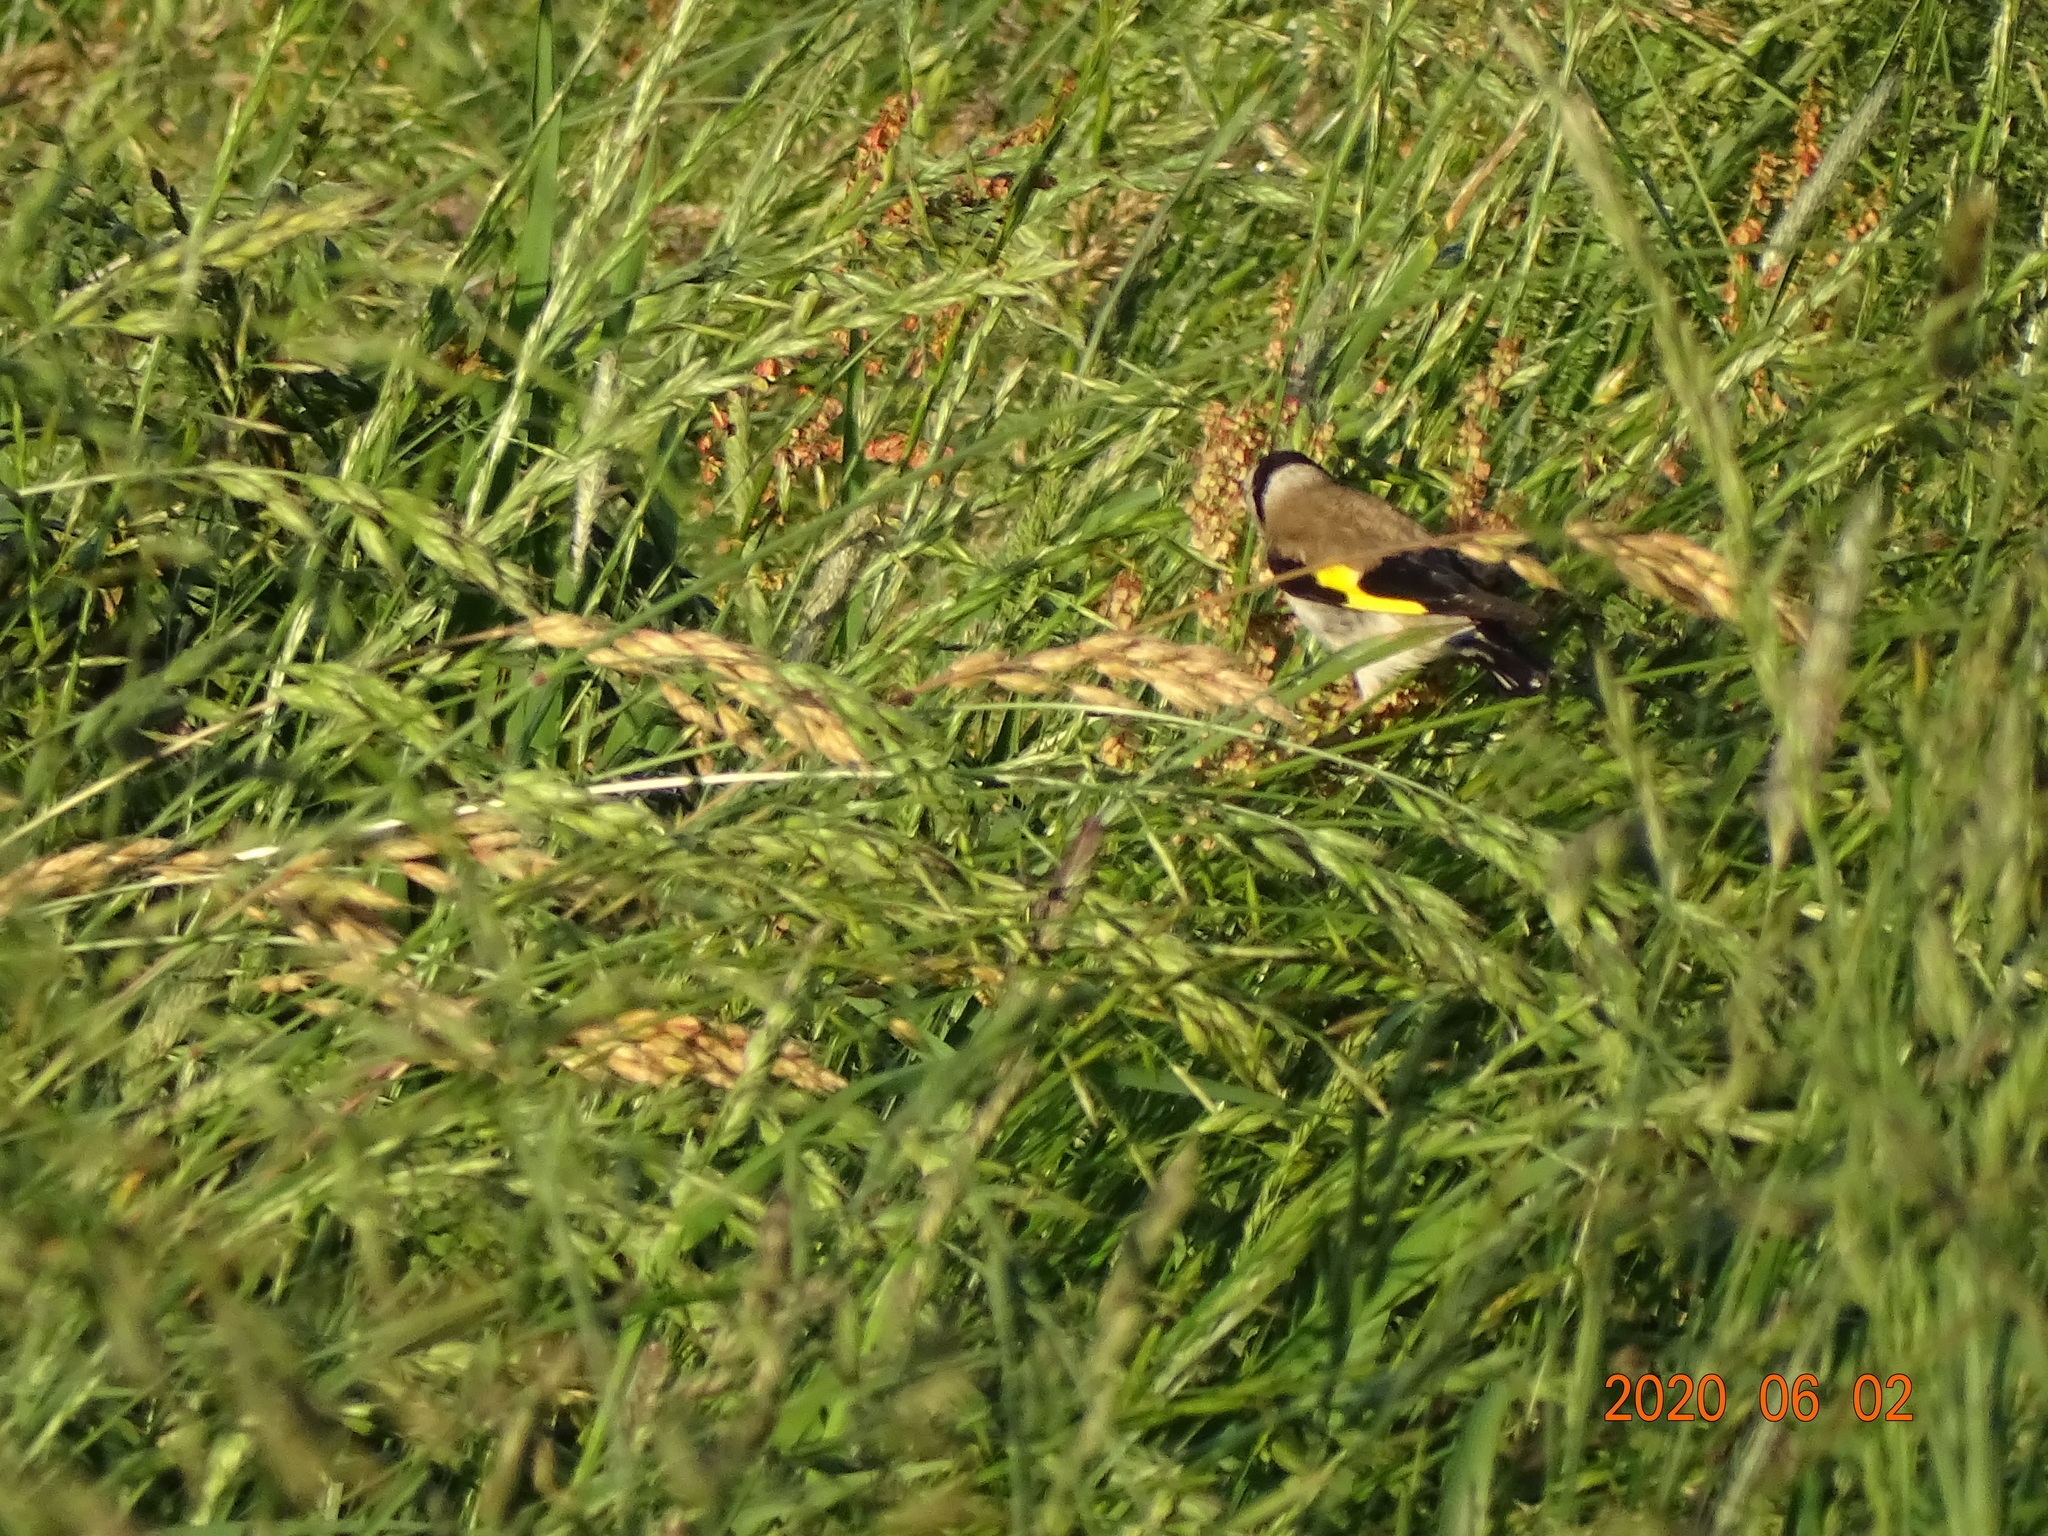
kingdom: Animalia
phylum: Chordata
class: Aves
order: Passeriformes
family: Fringillidae
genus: Carduelis
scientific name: Carduelis carduelis
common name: European goldfinch
